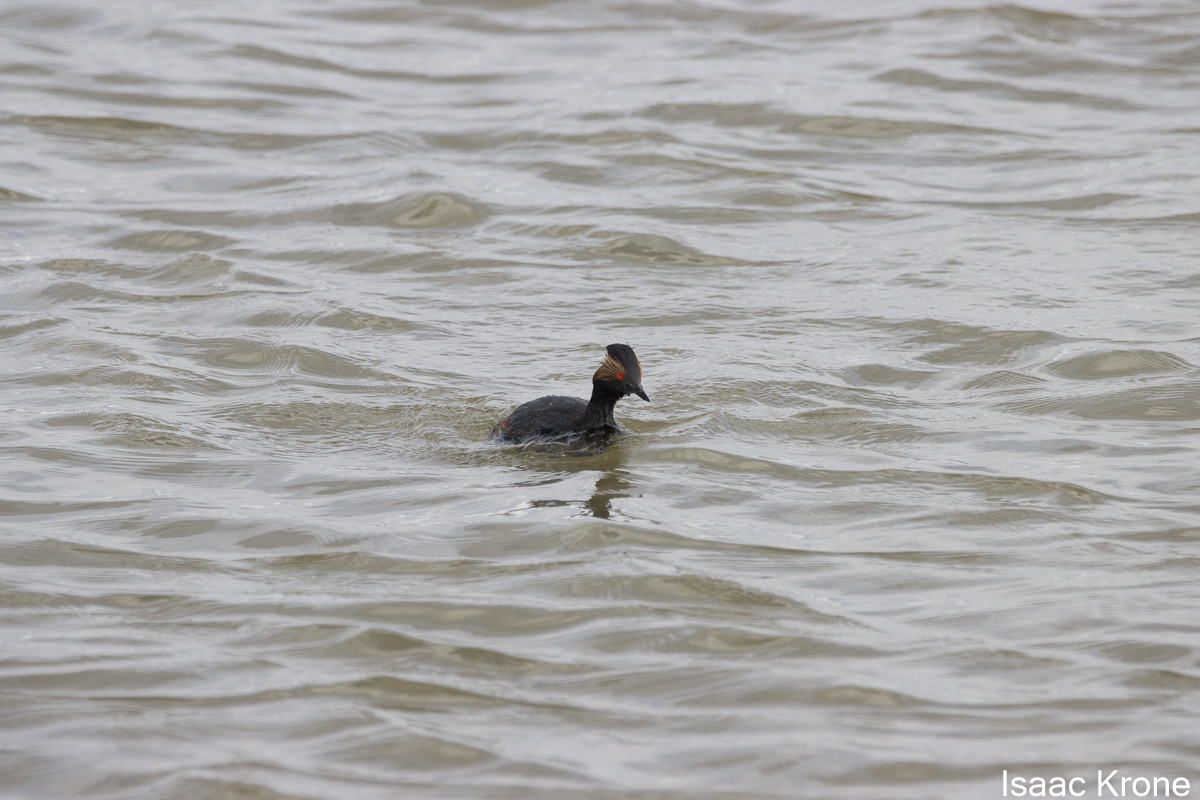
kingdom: Animalia
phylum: Chordata
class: Aves
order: Podicipediformes
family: Podicipedidae
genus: Podiceps
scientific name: Podiceps nigricollis
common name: Black-necked grebe
